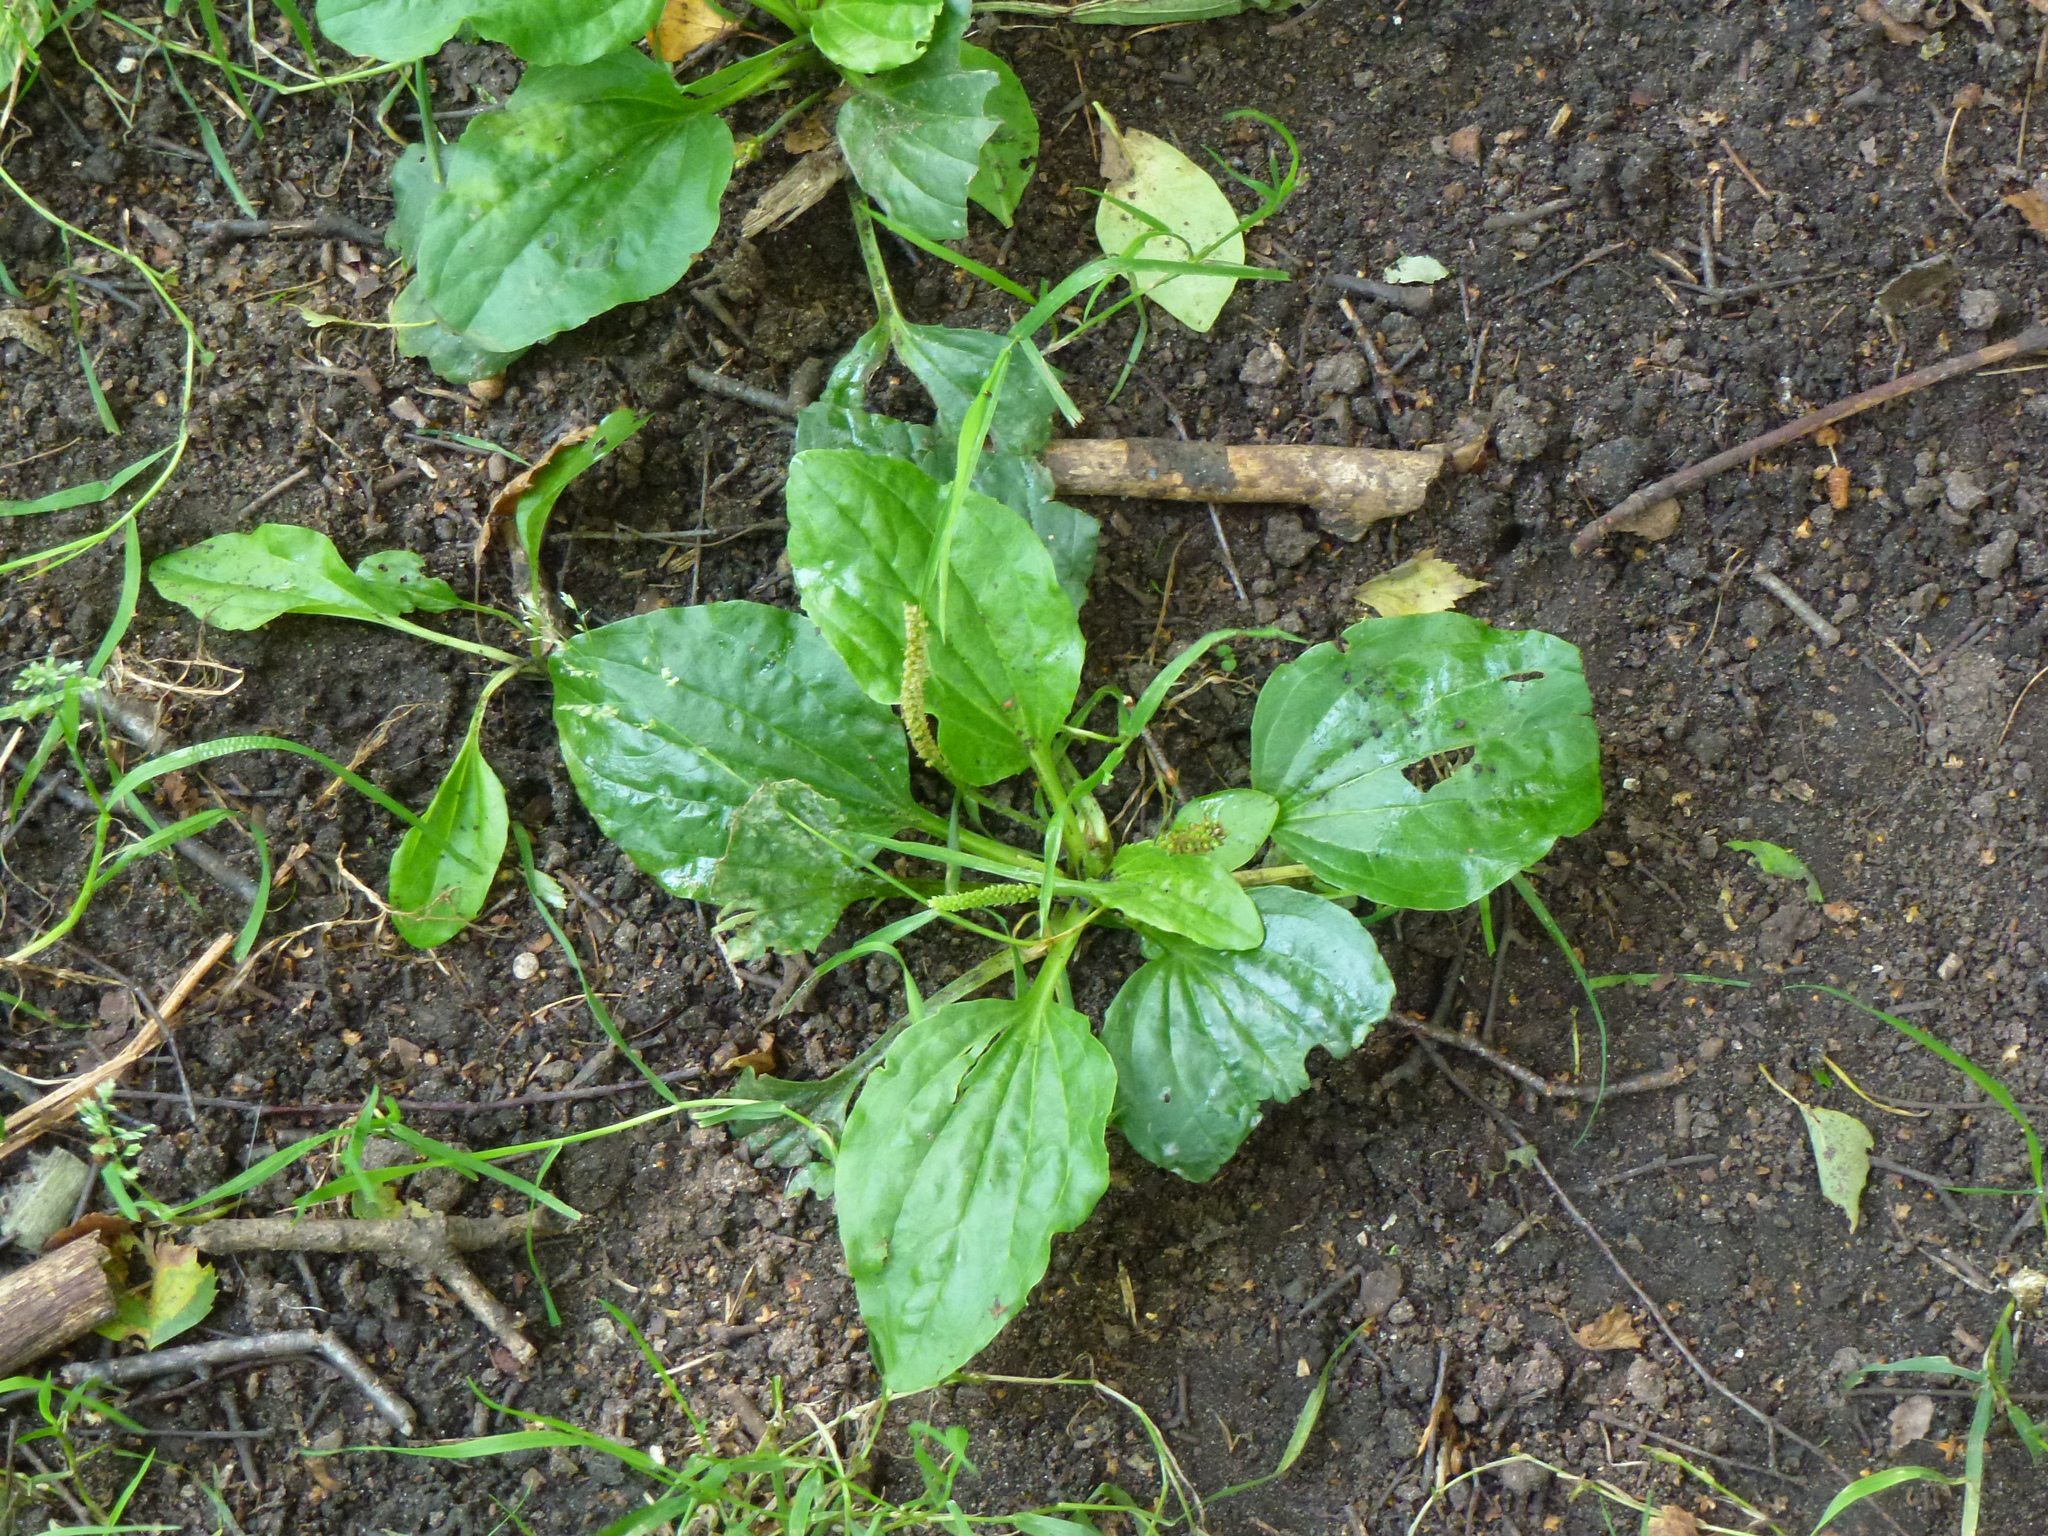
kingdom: Plantae
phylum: Tracheophyta
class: Magnoliopsida
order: Lamiales
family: Plantaginaceae
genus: Plantago
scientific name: Plantago major
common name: Common plantain
